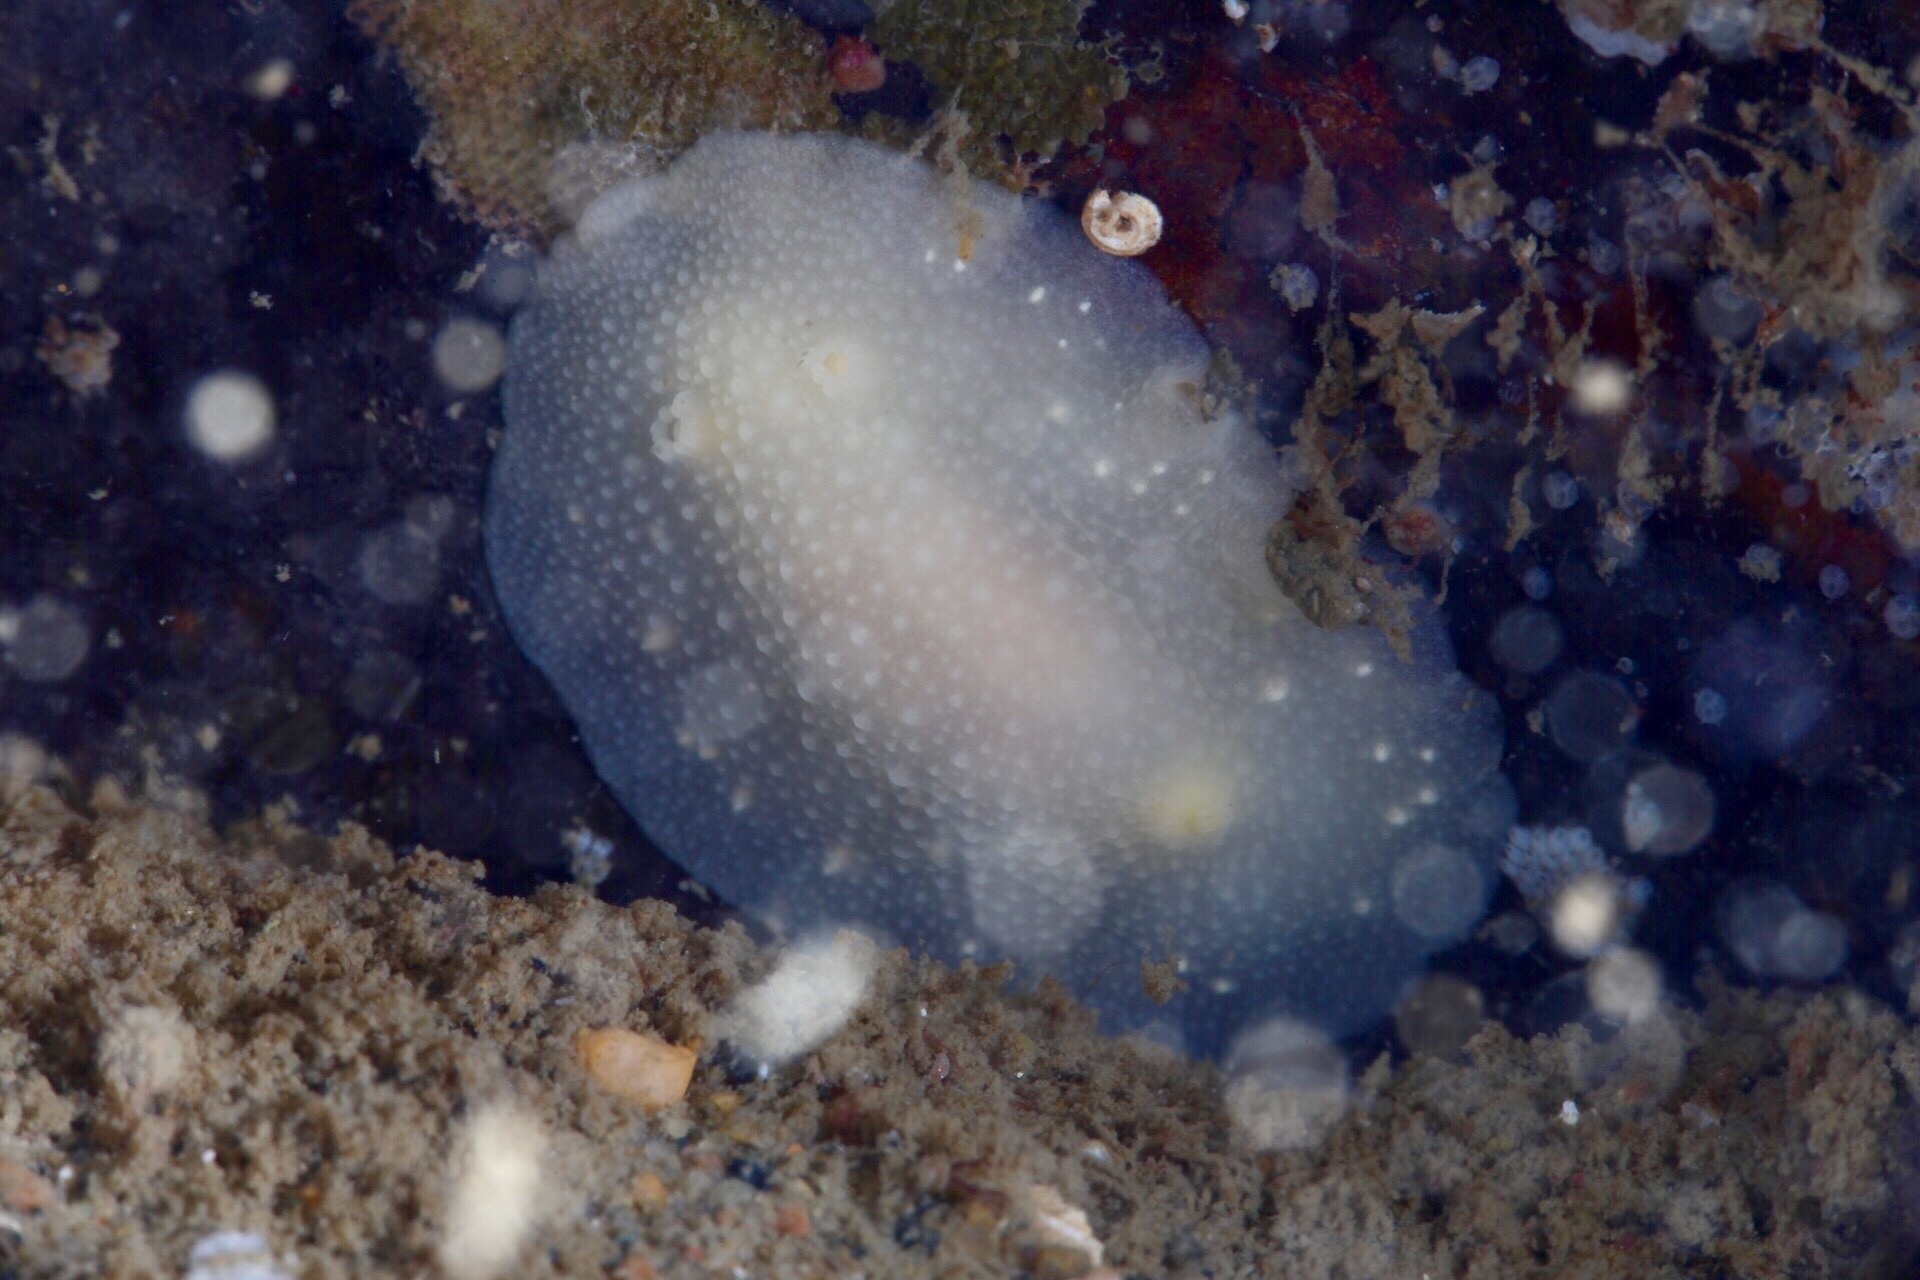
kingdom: Animalia
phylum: Mollusca
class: Gastropoda
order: Nudibranchia
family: Cadlinidae
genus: Cadlina
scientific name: Cadlina laevis
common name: White atlantic cadlina
